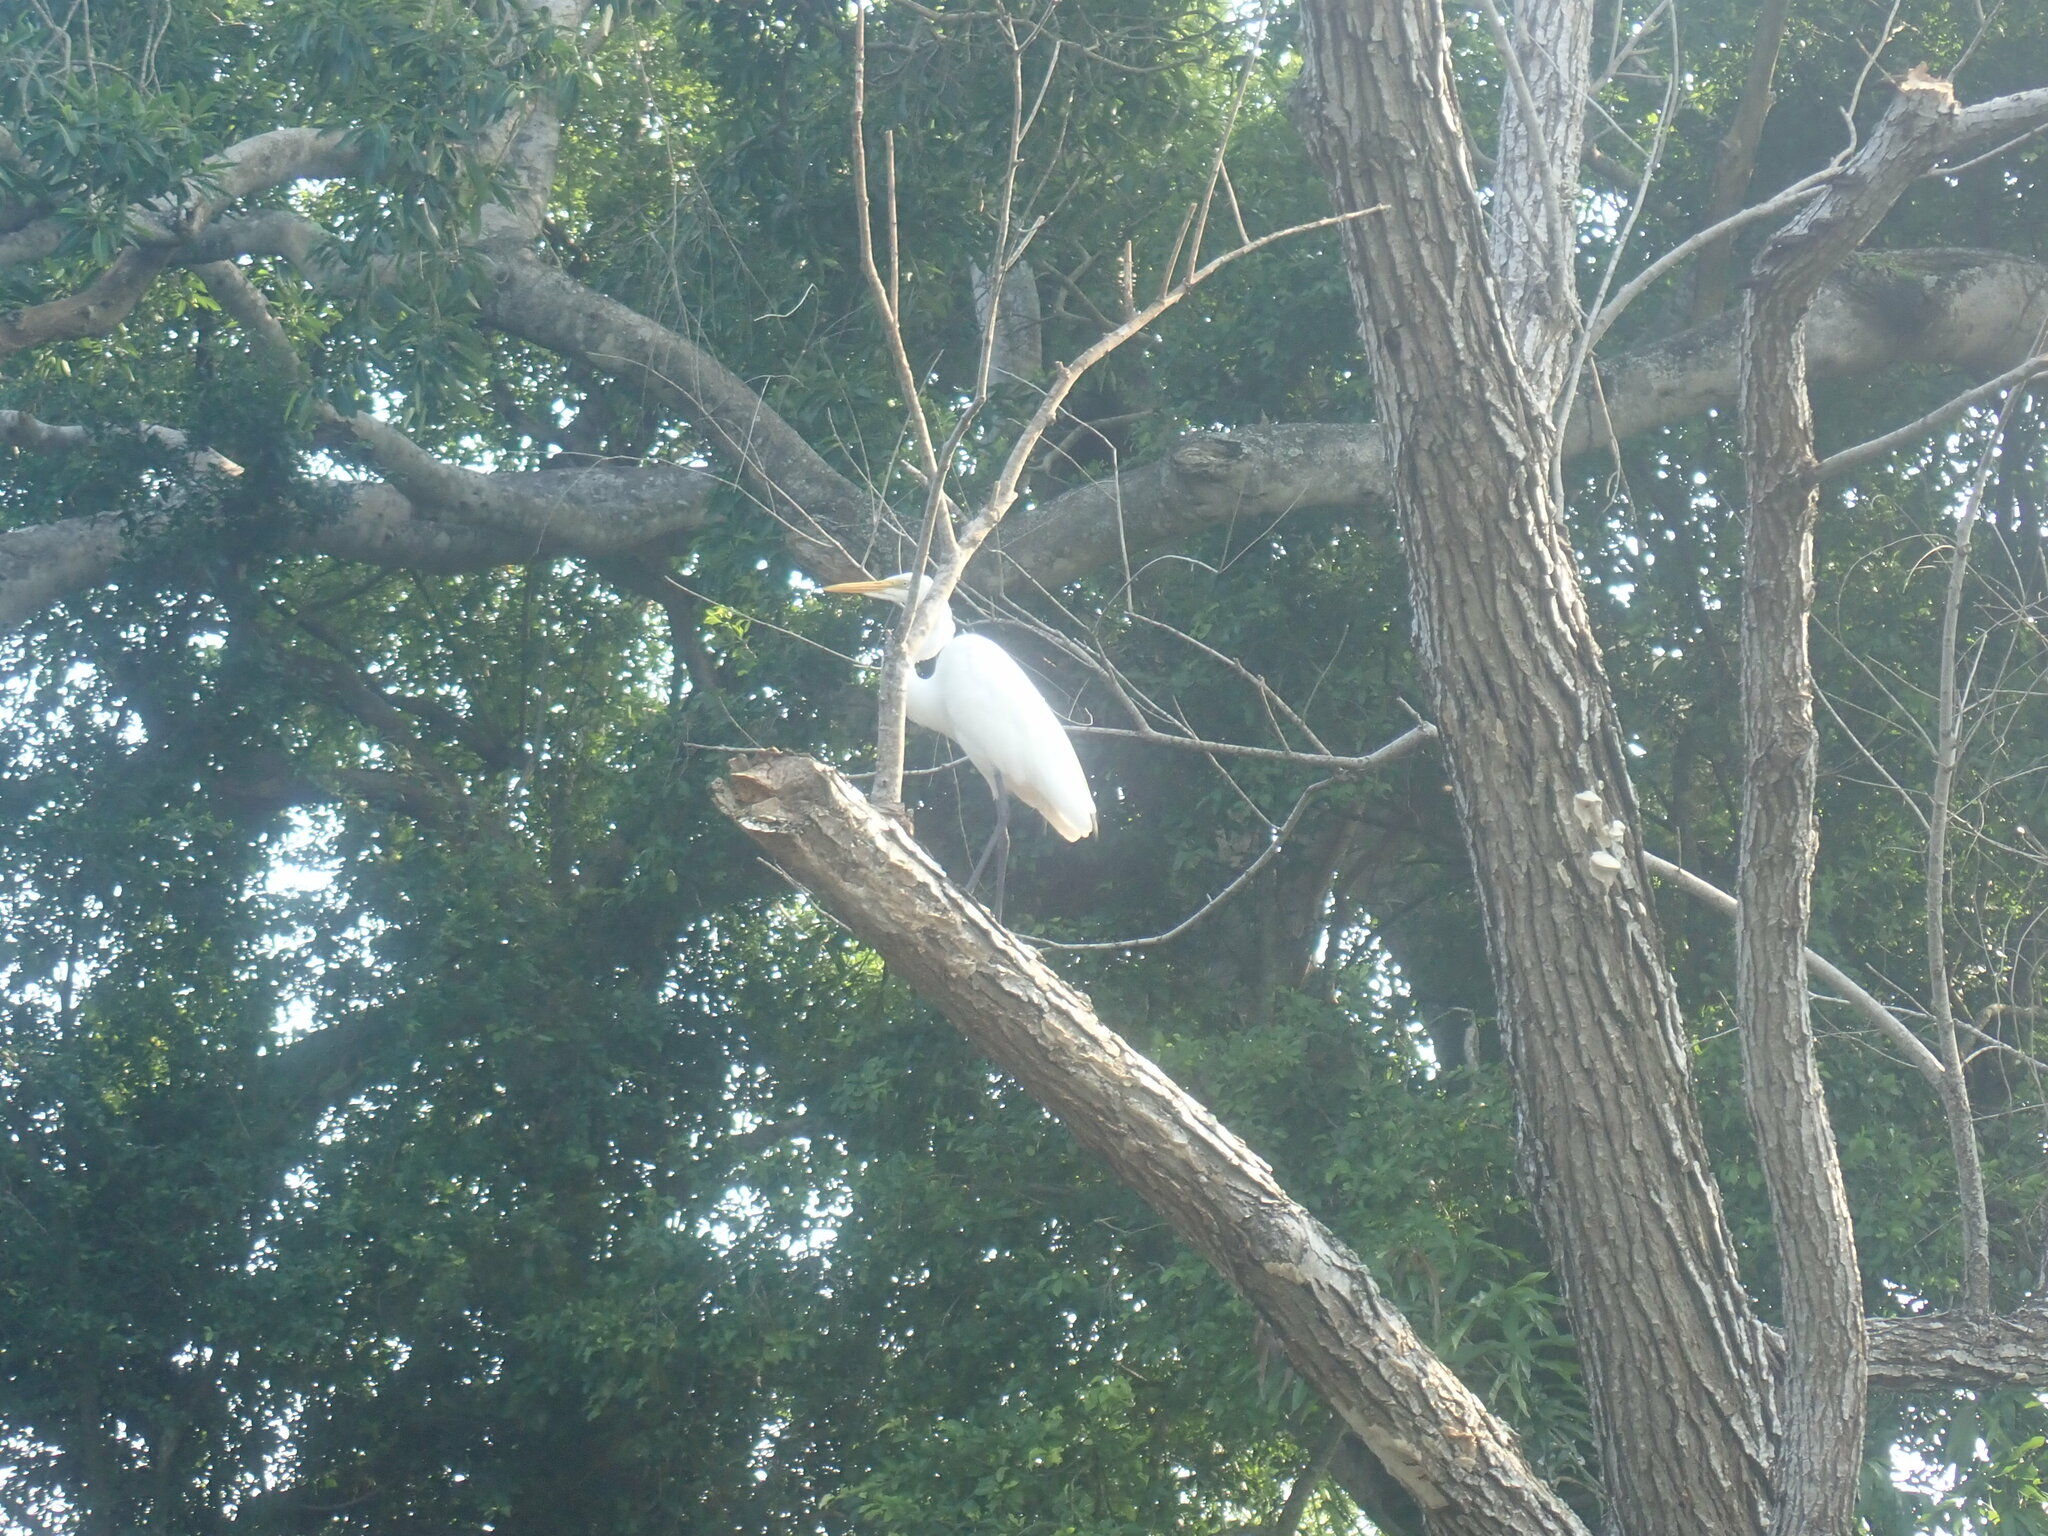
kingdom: Animalia
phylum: Chordata
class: Aves
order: Pelecaniformes
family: Ardeidae
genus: Ardea
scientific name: Ardea alba
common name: Great egret
